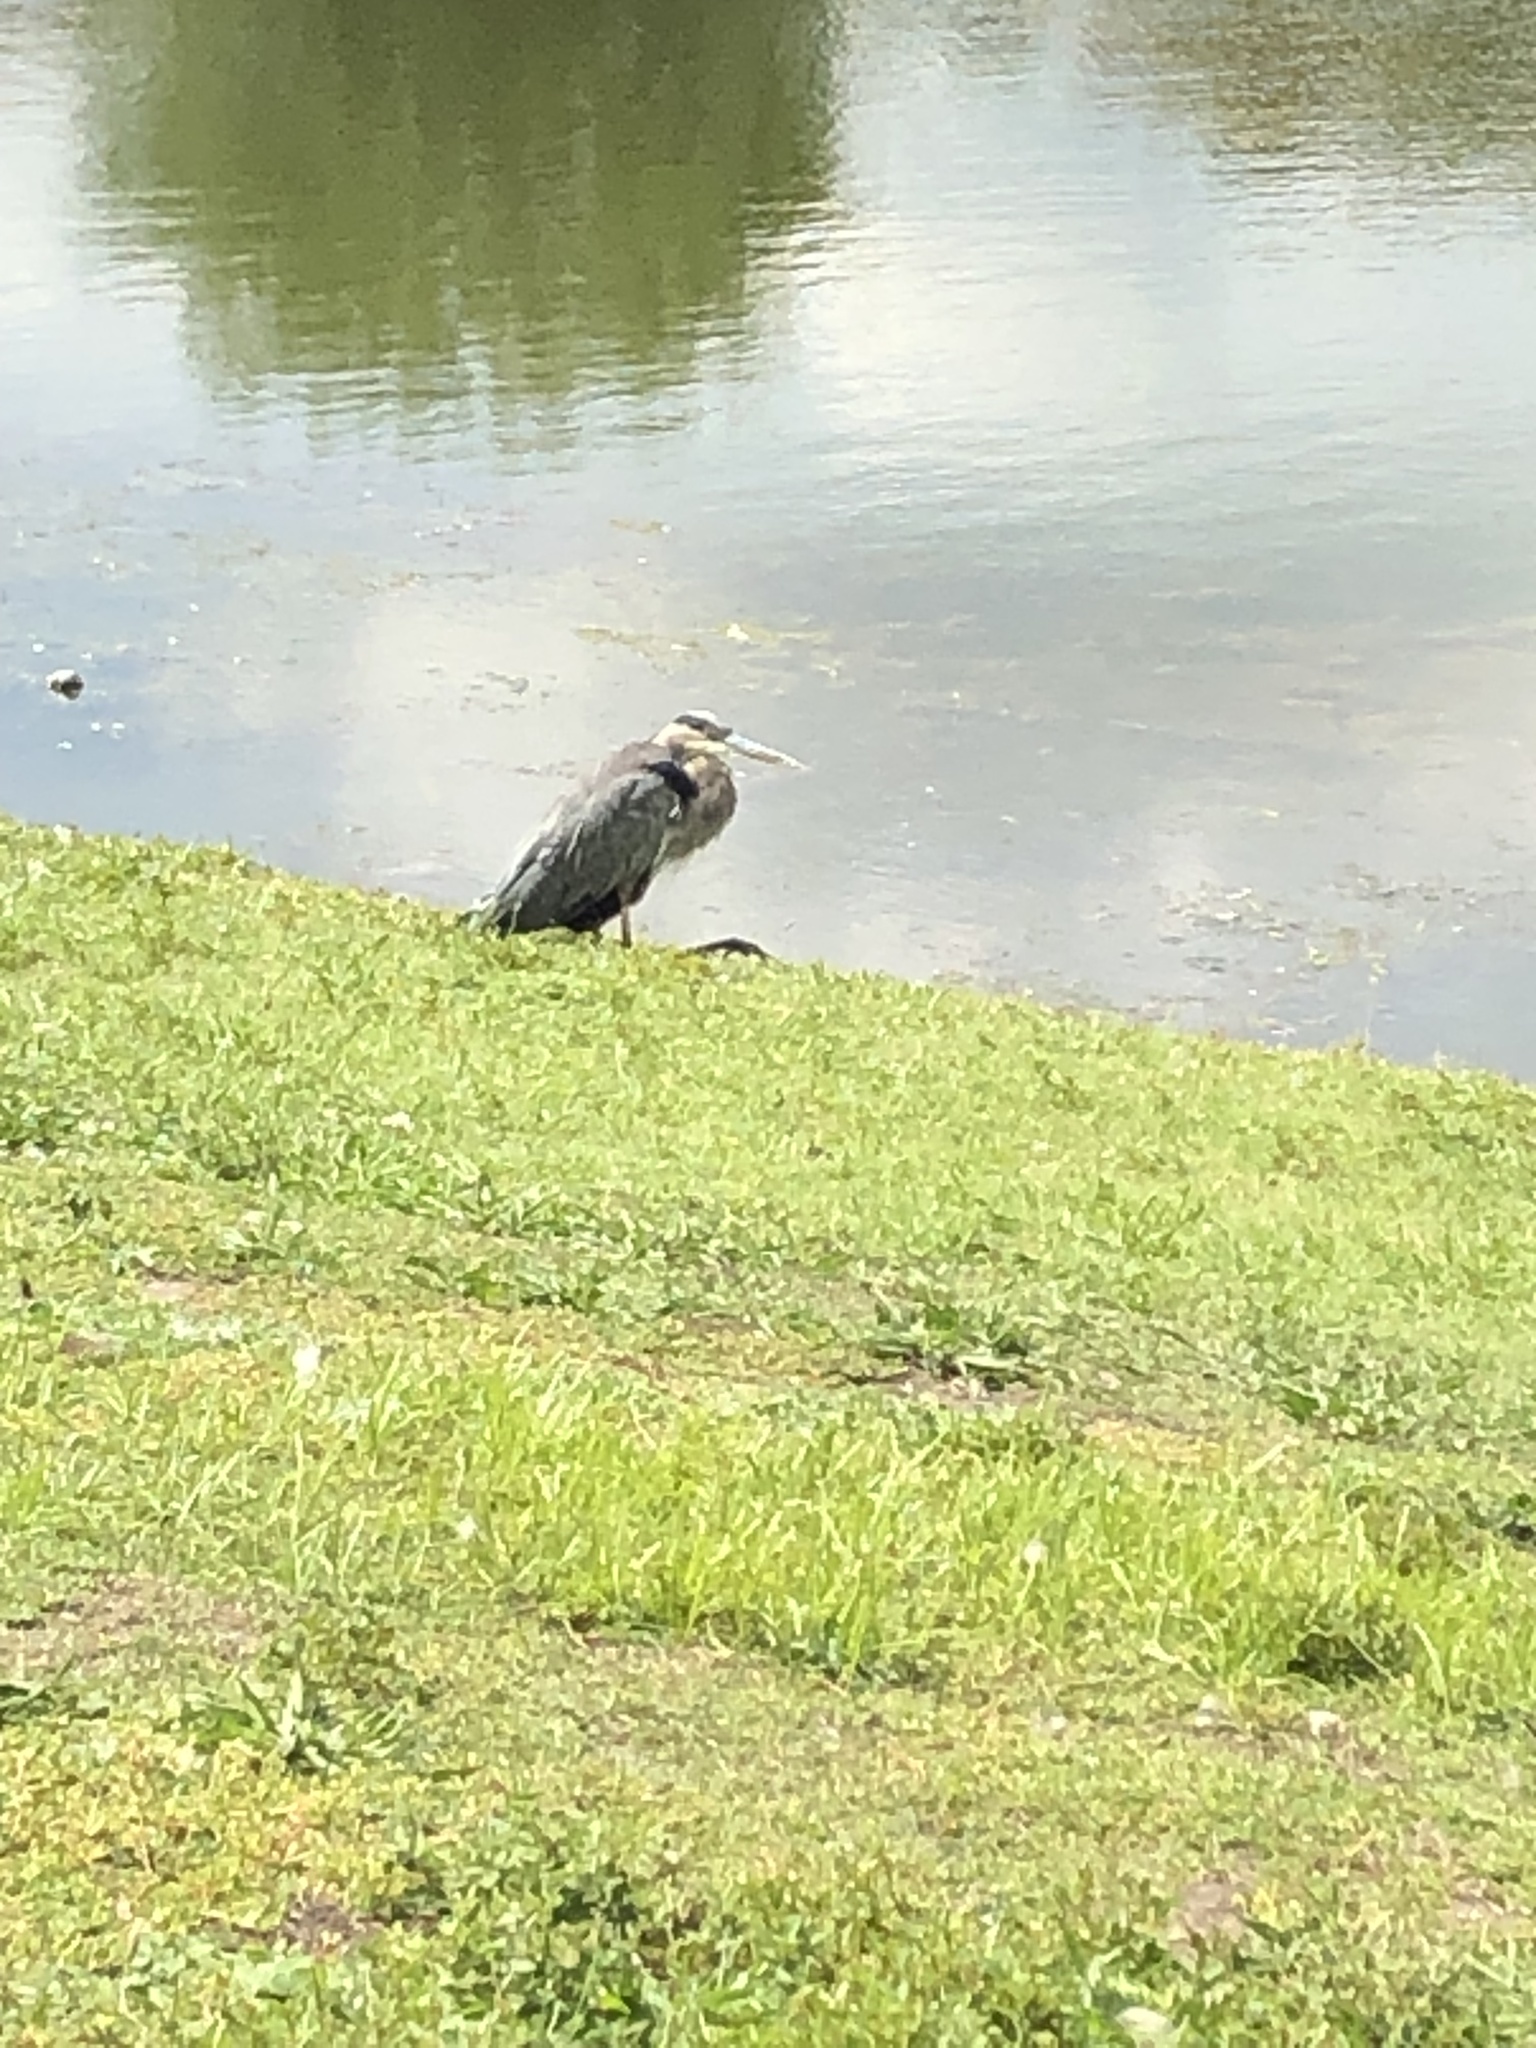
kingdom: Animalia
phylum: Chordata
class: Aves
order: Pelecaniformes
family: Ardeidae
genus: Ardea
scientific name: Ardea herodias
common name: Great blue heron
